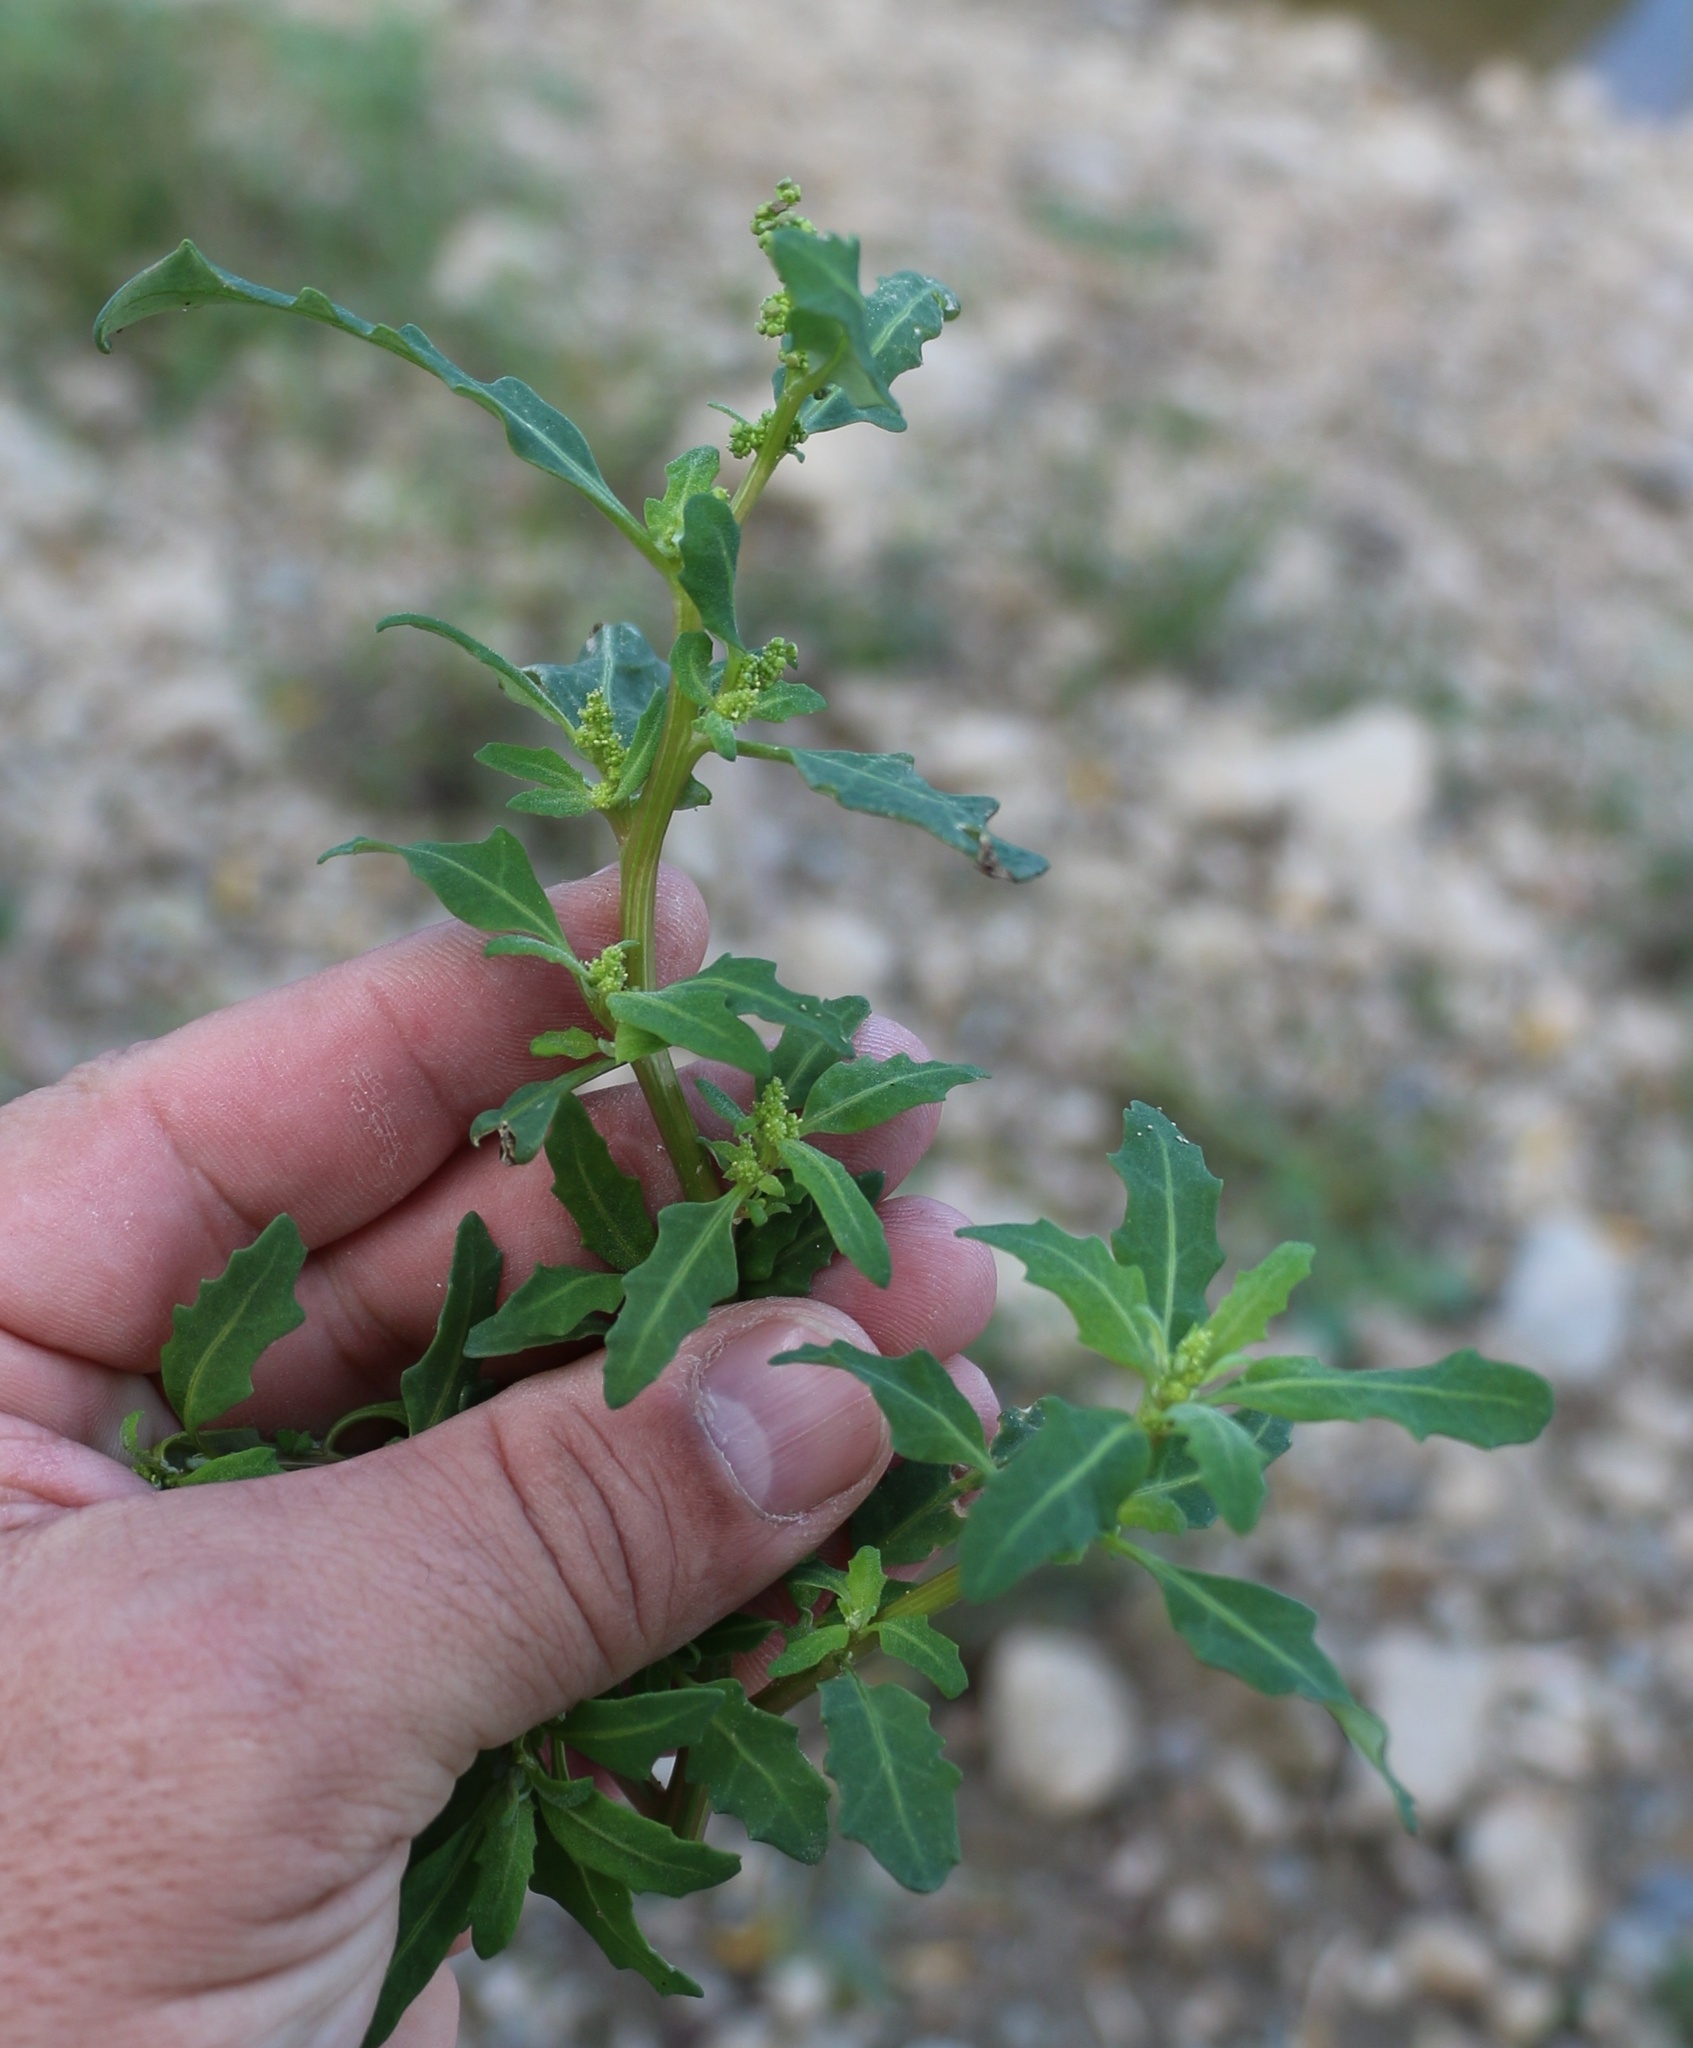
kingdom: Plantae
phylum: Tracheophyta
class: Magnoliopsida
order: Caryophyllales
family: Amaranthaceae
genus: Oxybasis
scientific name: Oxybasis glauca
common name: Glaucous goosefoot
